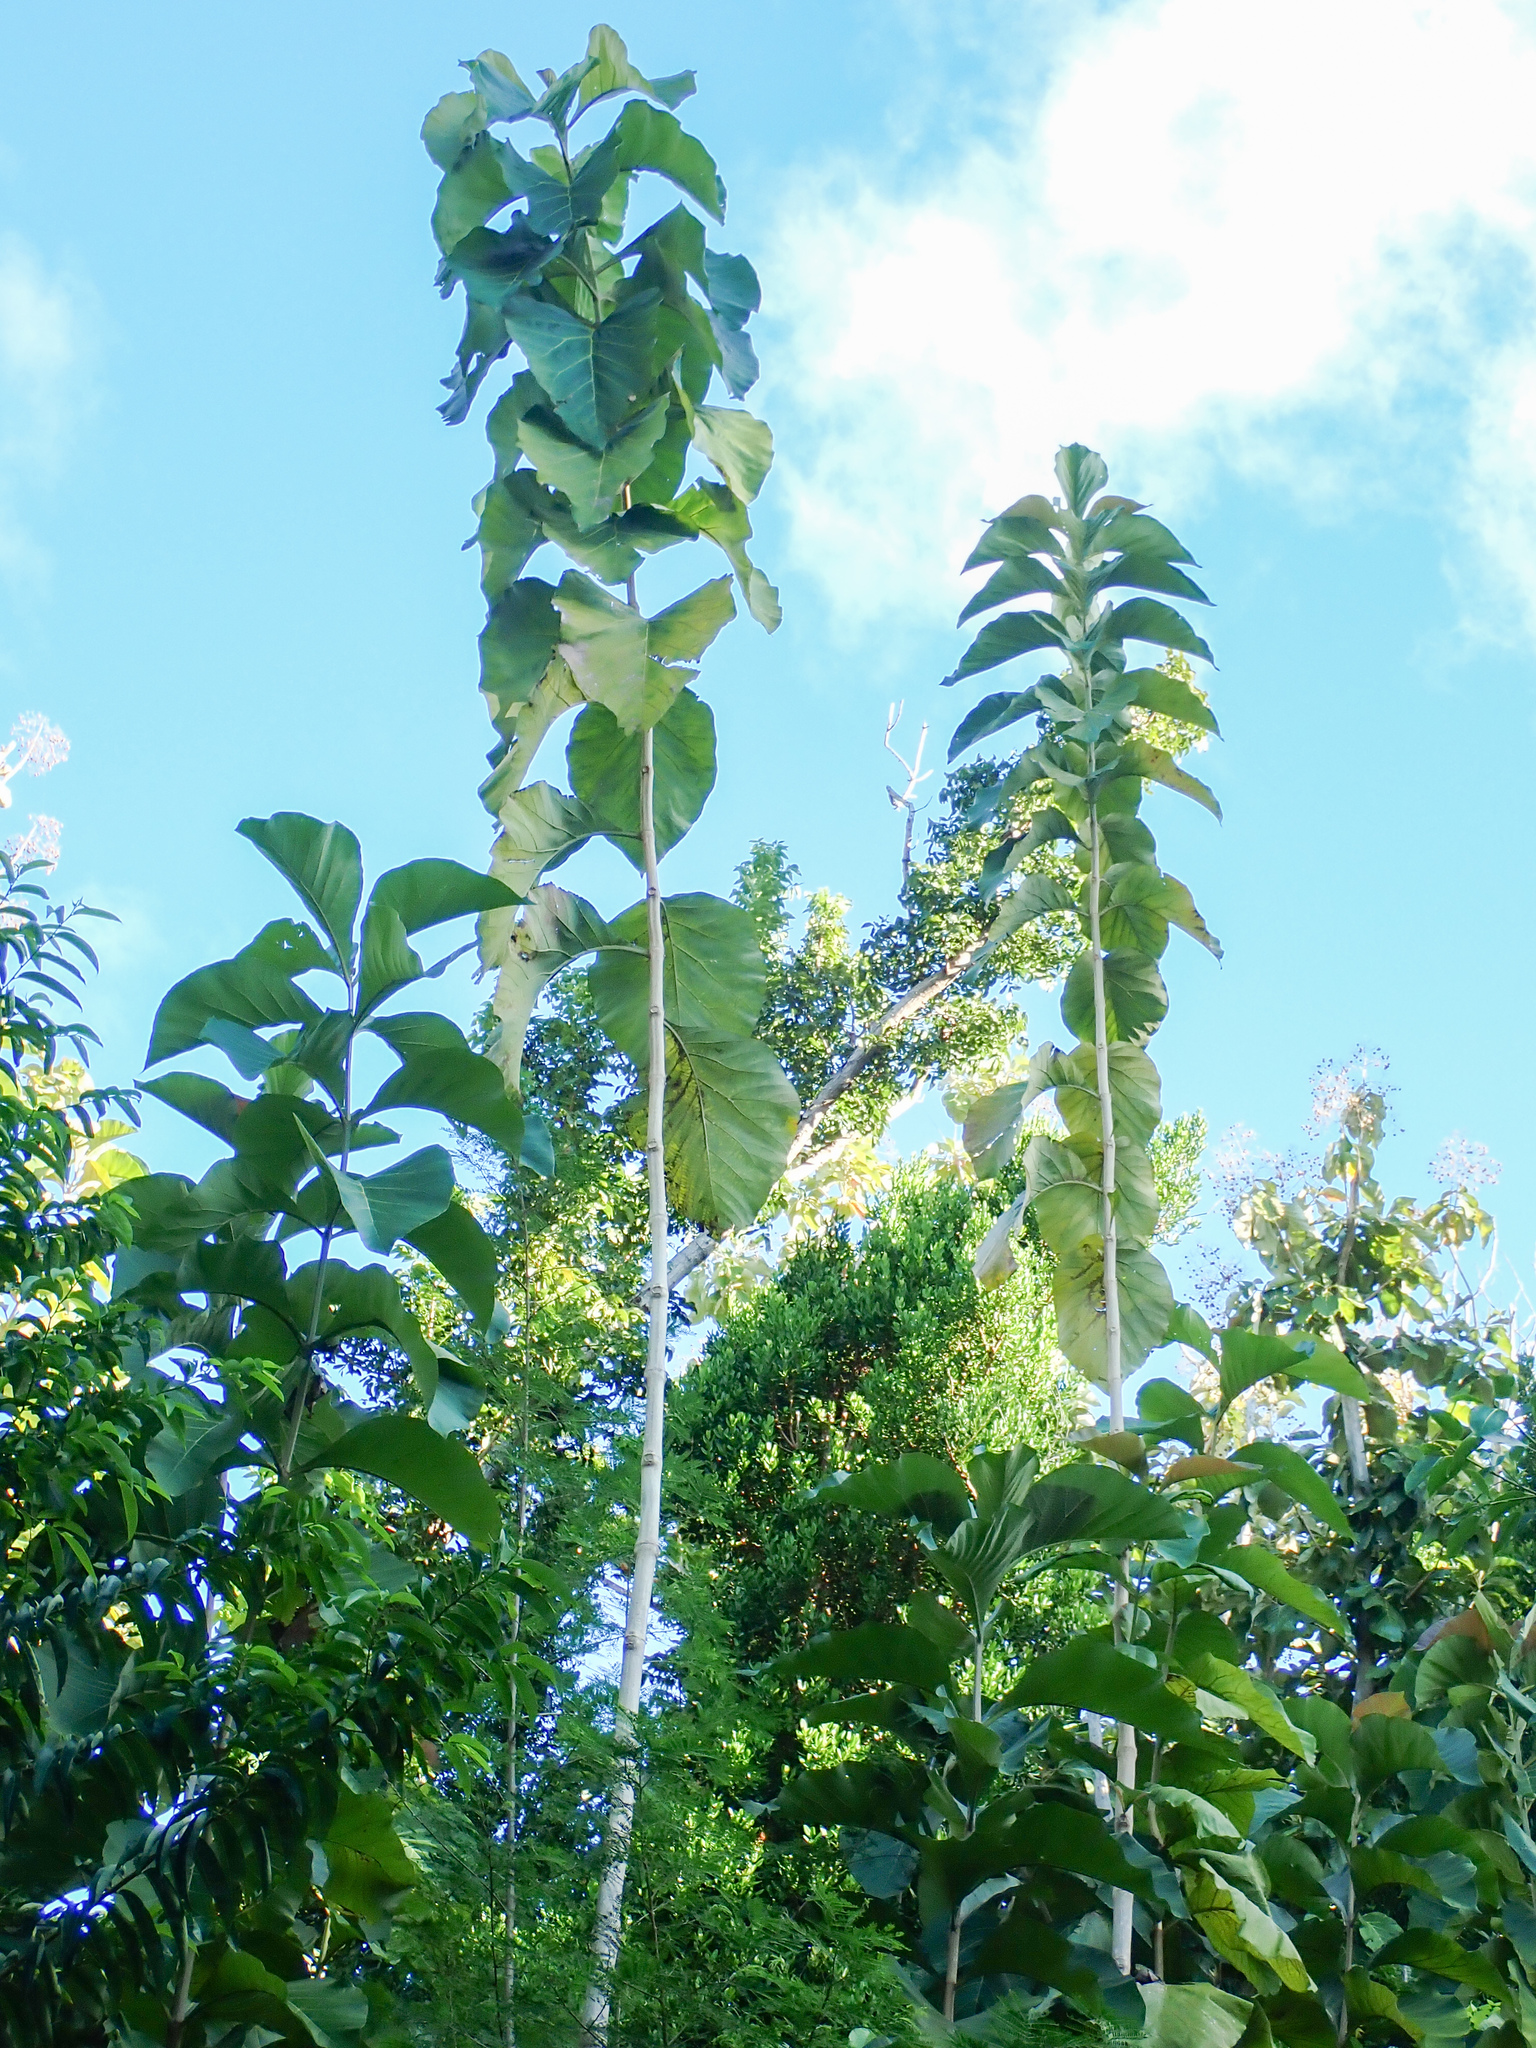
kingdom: Plantae
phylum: Tracheophyta
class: Magnoliopsida
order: Lamiales
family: Lamiaceae
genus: Tectona
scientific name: Tectona grandis
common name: Teak
